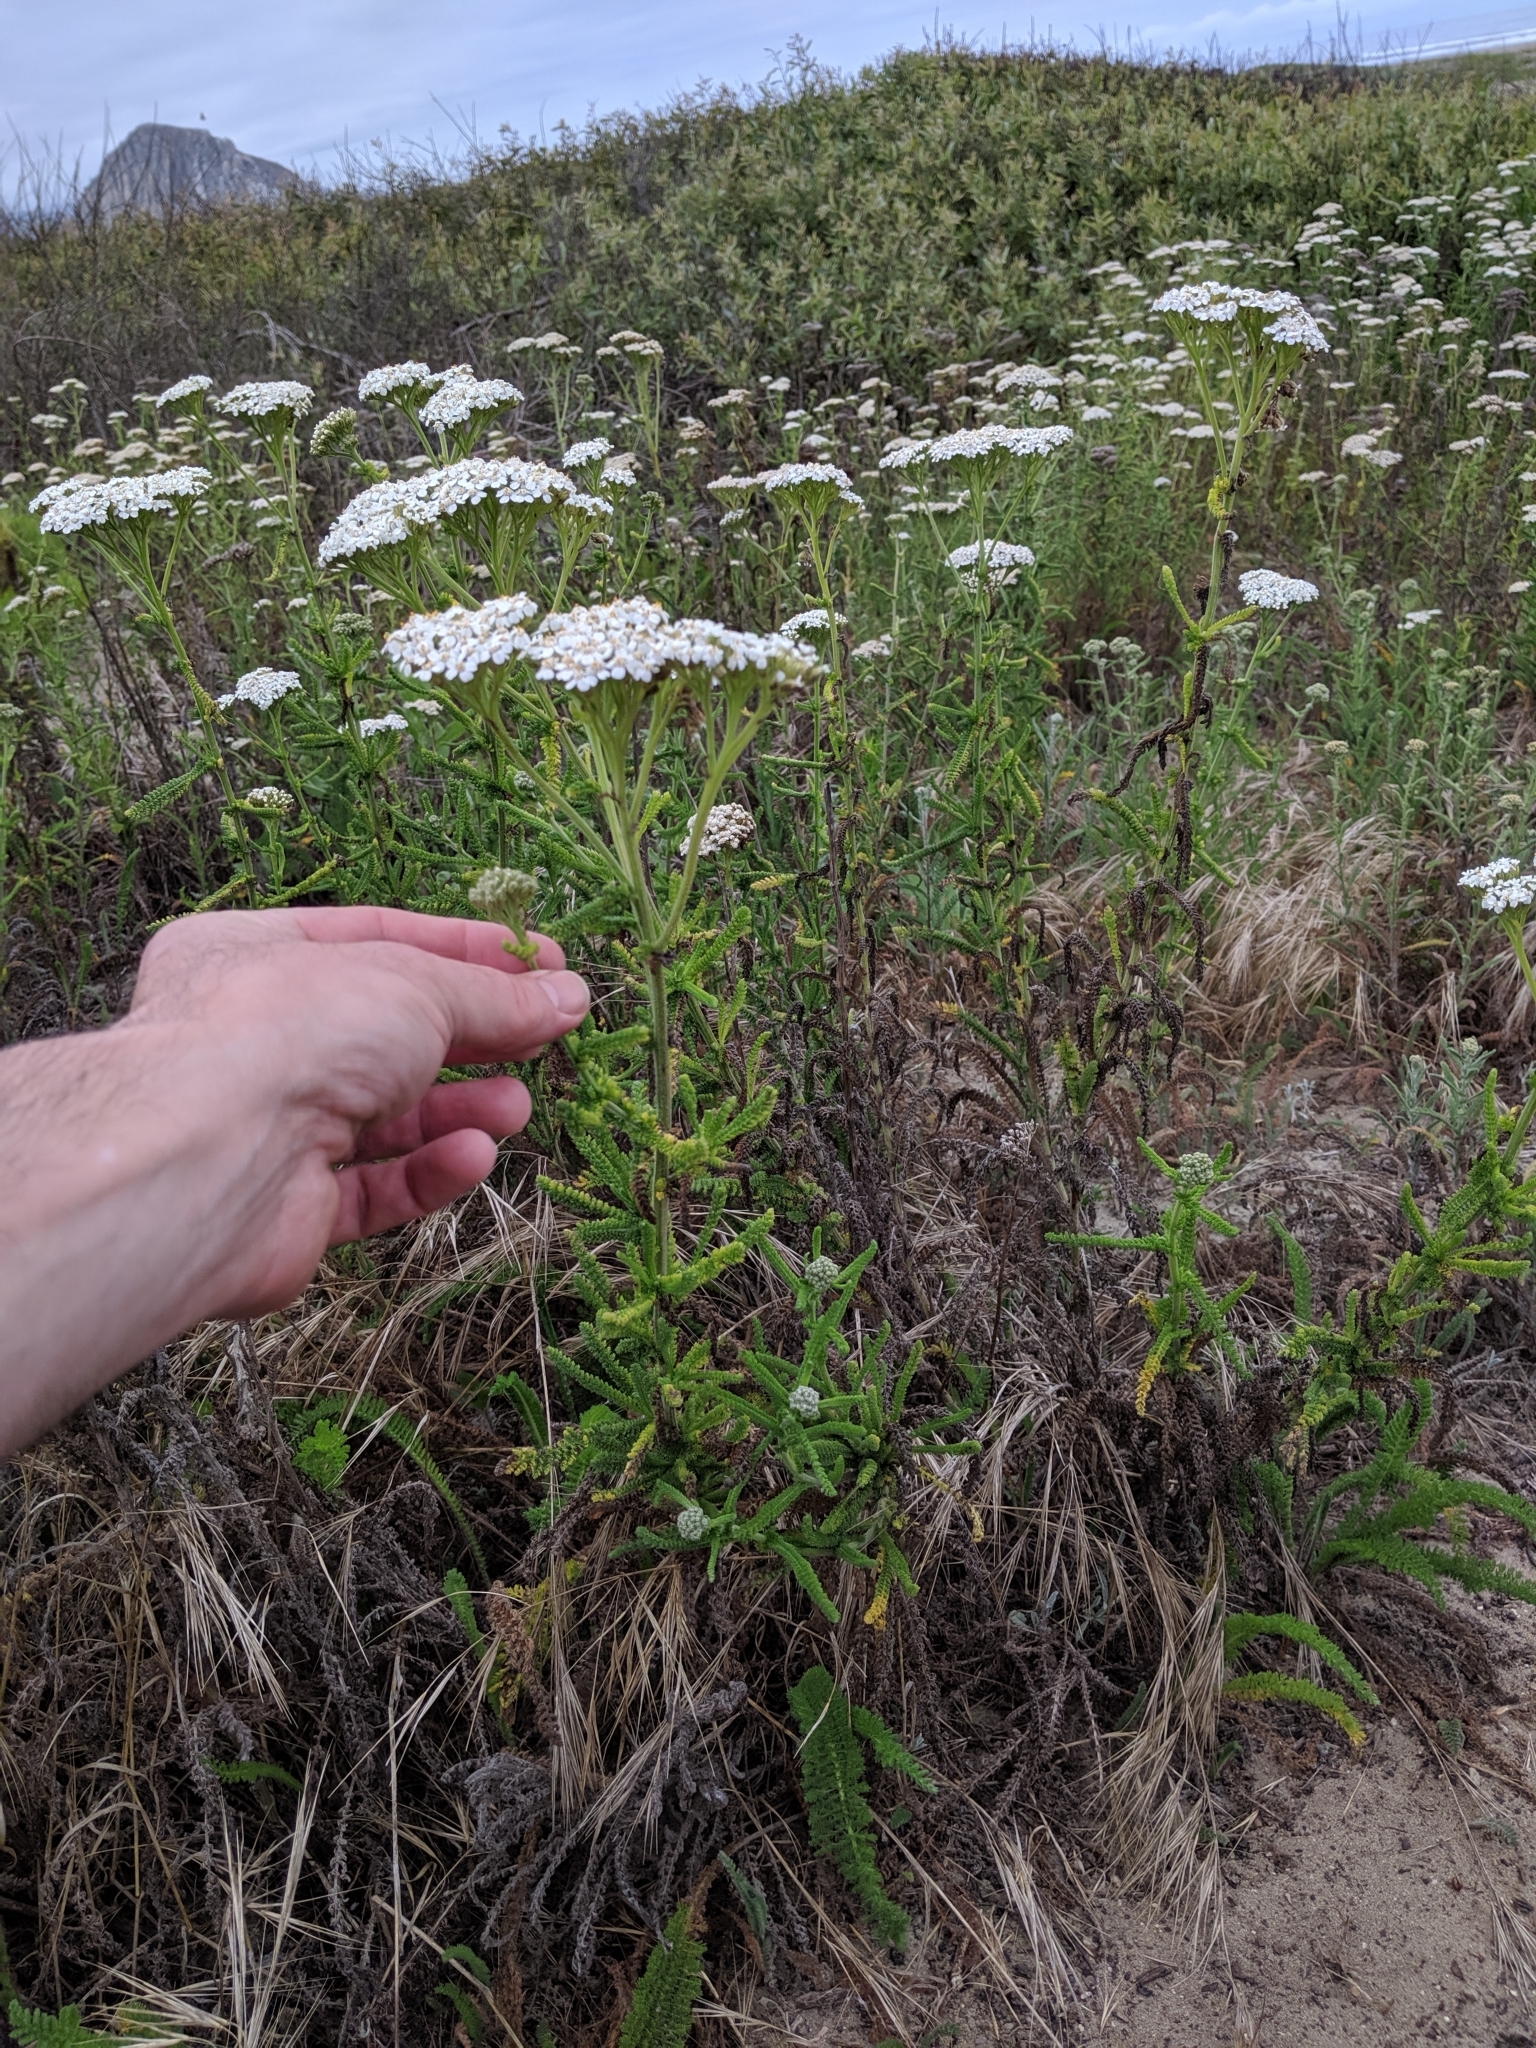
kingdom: Plantae
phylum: Tracheophyta
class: Magnoliopsida
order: Asterales
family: Asteraceae
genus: Achillea
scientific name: Achillea millefolium
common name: Yarrow
